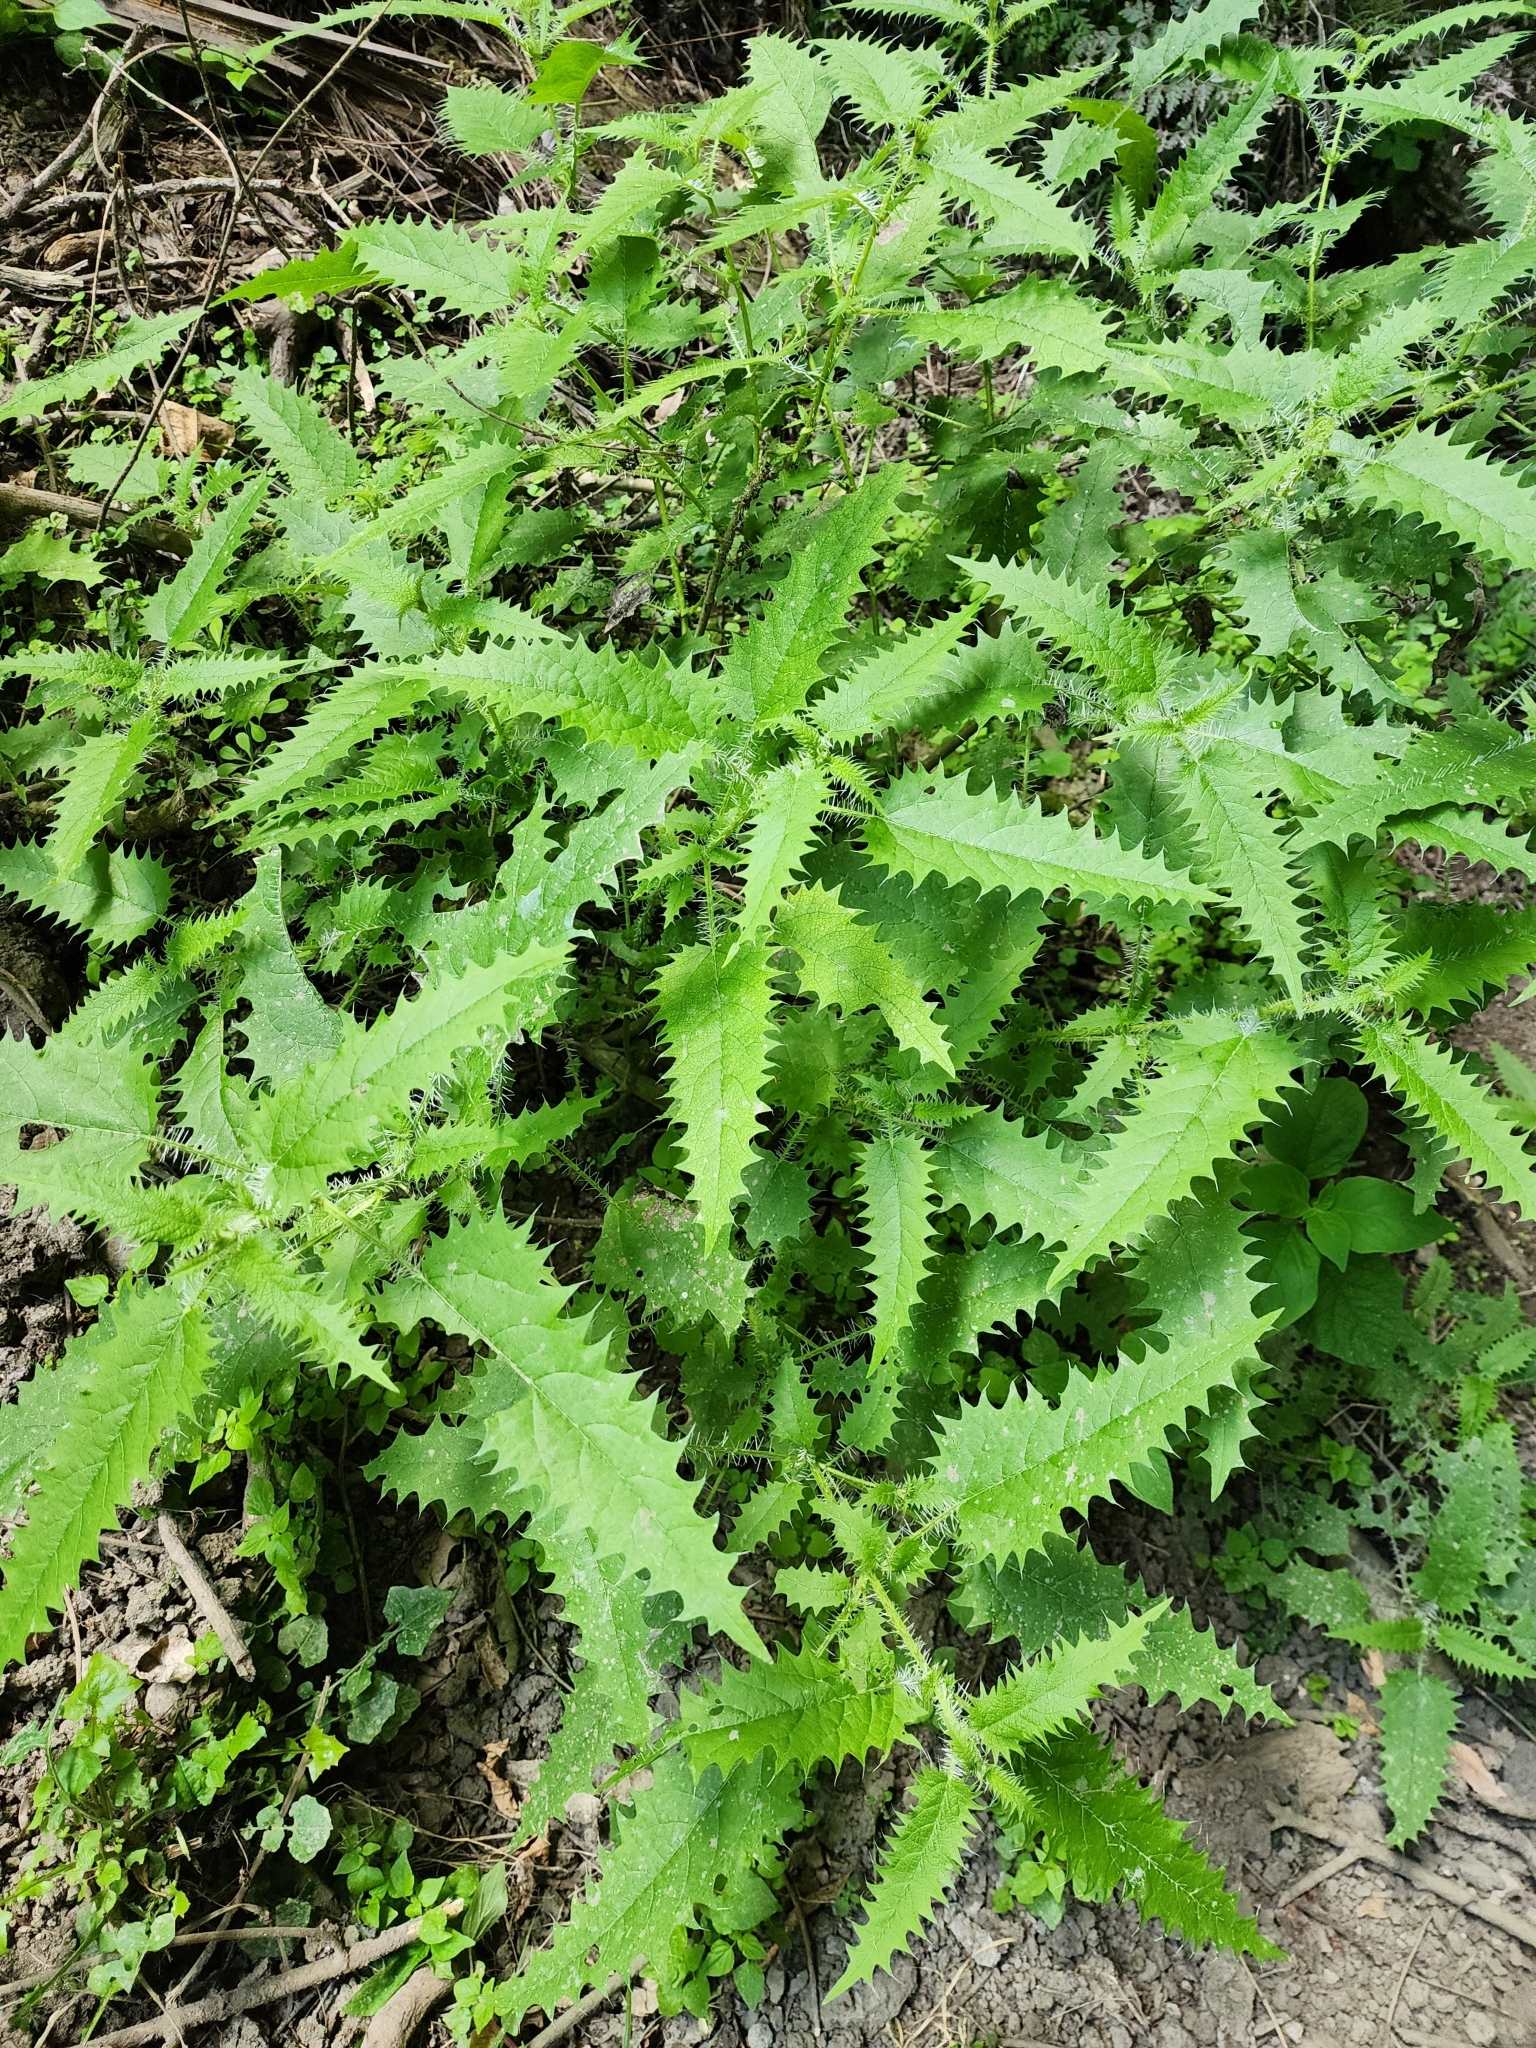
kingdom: Plantae
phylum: Tracheophyta
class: Magnoliopsida
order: Rosales
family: Urticaceae
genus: Urtica
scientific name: Urtica ferox
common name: Tree nettle
